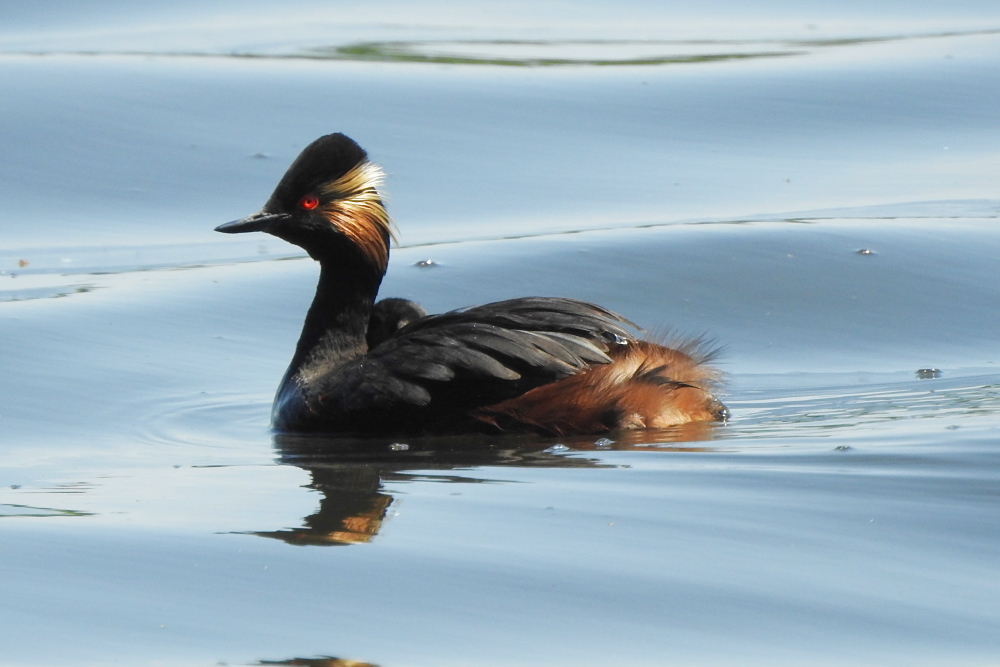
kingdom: Animalia
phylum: Chordata
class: Aves
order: Podicipediformes
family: Podicipedidae
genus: Podiceps
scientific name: Podiceps nigricollis
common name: Black-necked grebe
